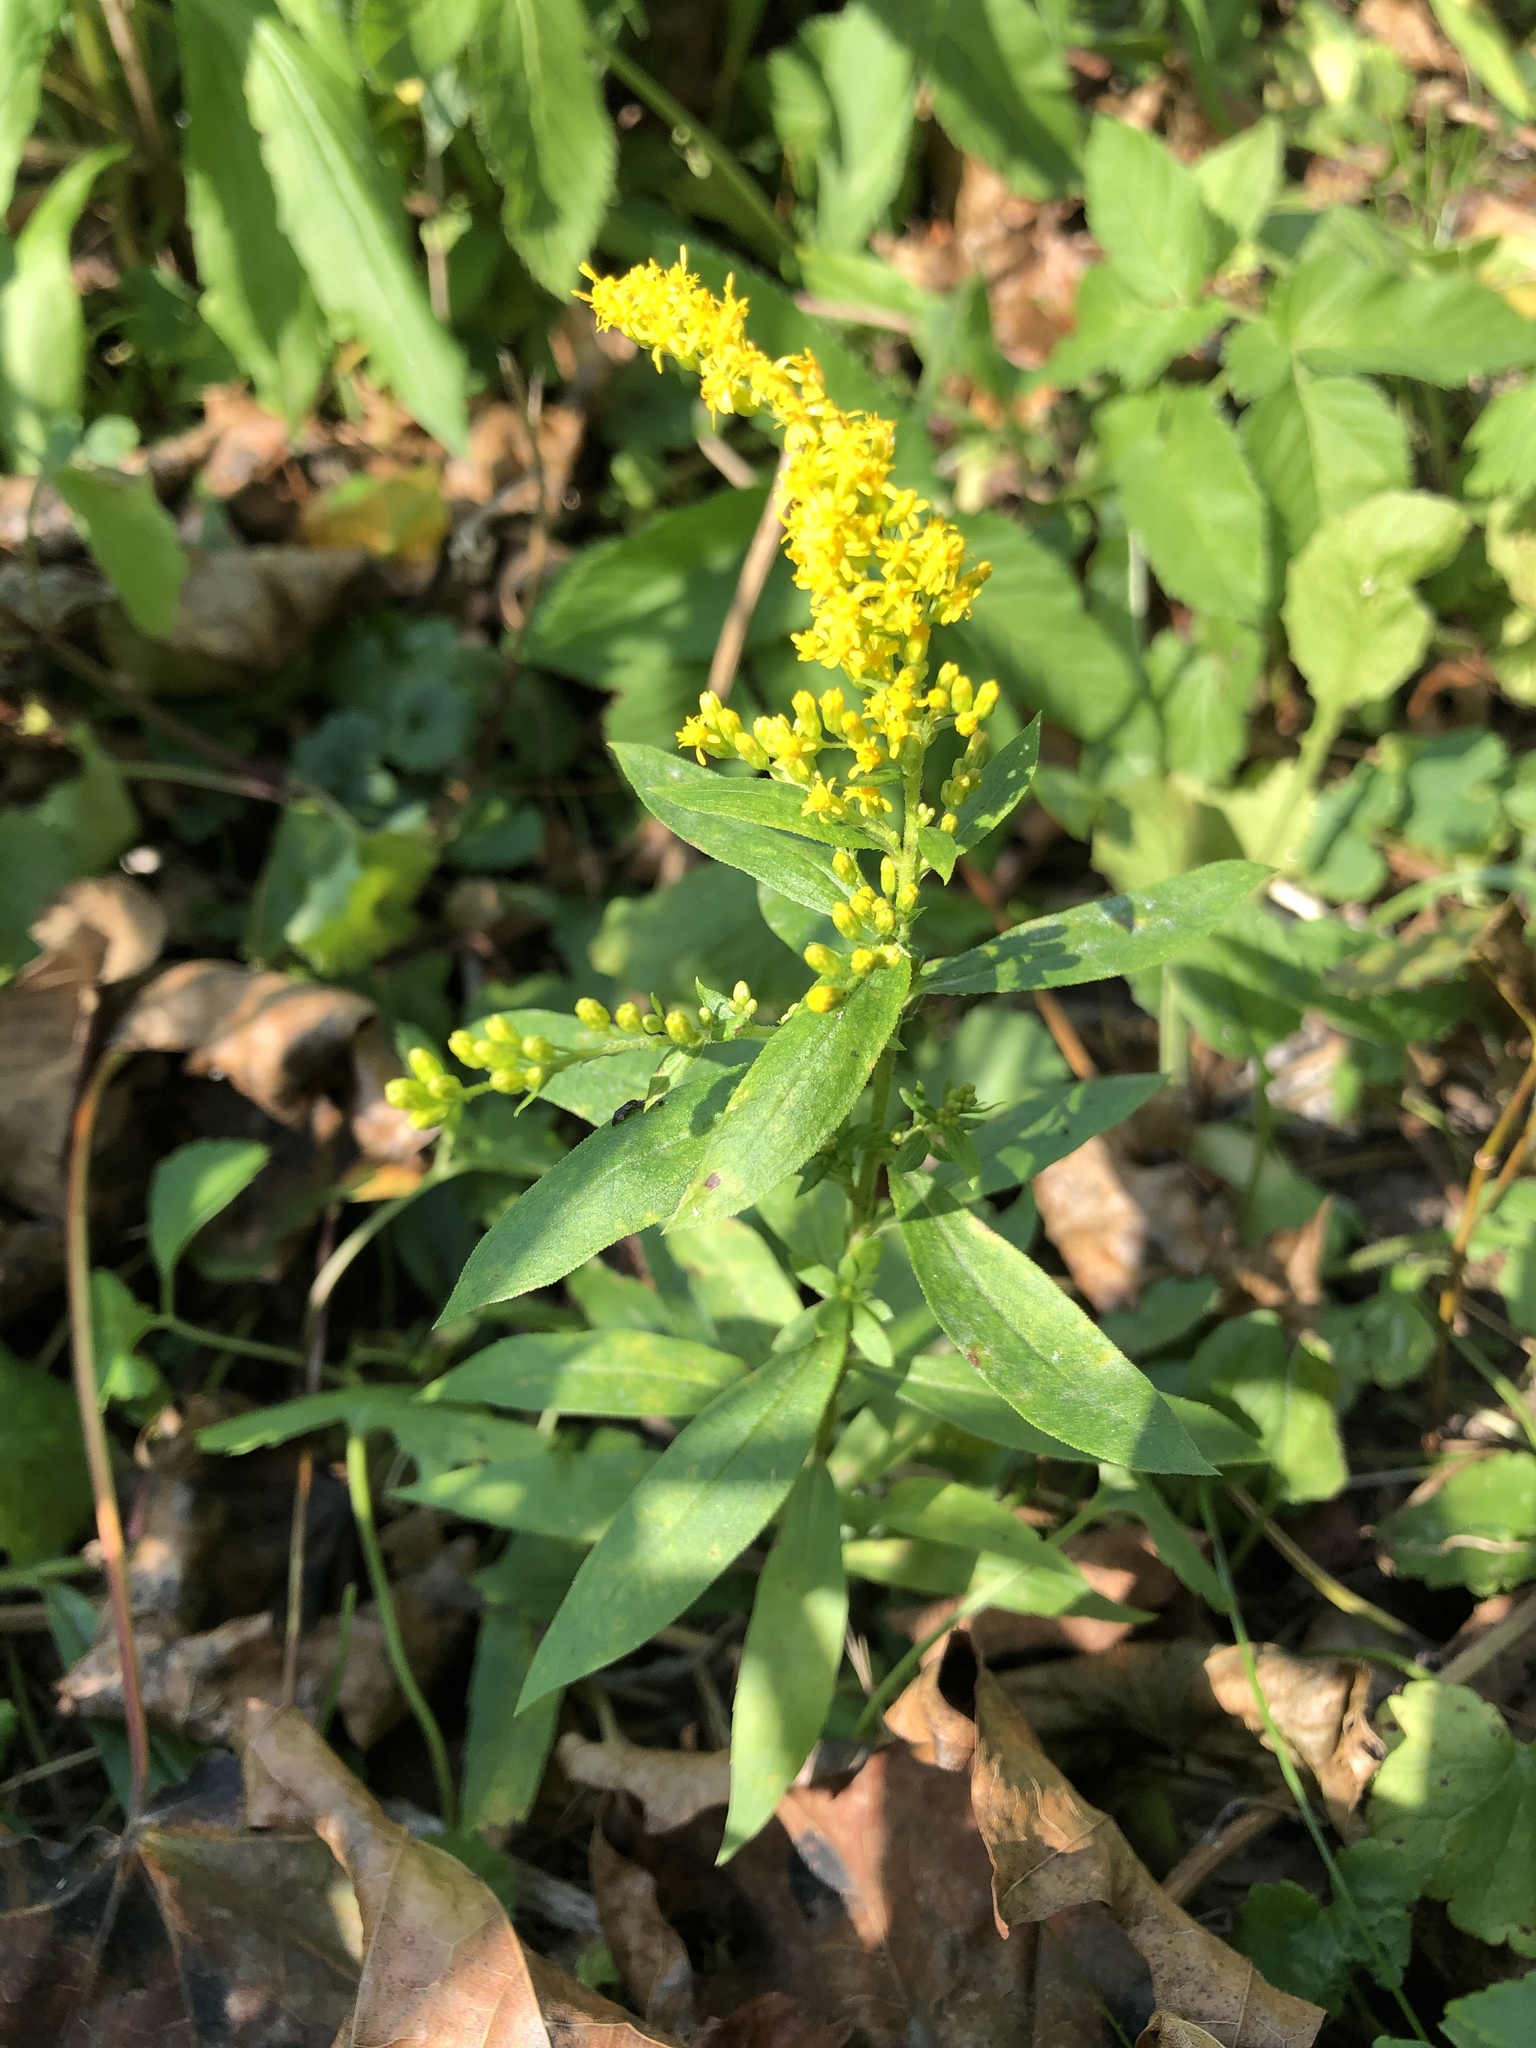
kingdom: Plantae
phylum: Tracheophyta
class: Magnoliopsida
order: Asterales
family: Asteraceae
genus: Solidago
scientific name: Solidago canadensis
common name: Canada goldenrod
